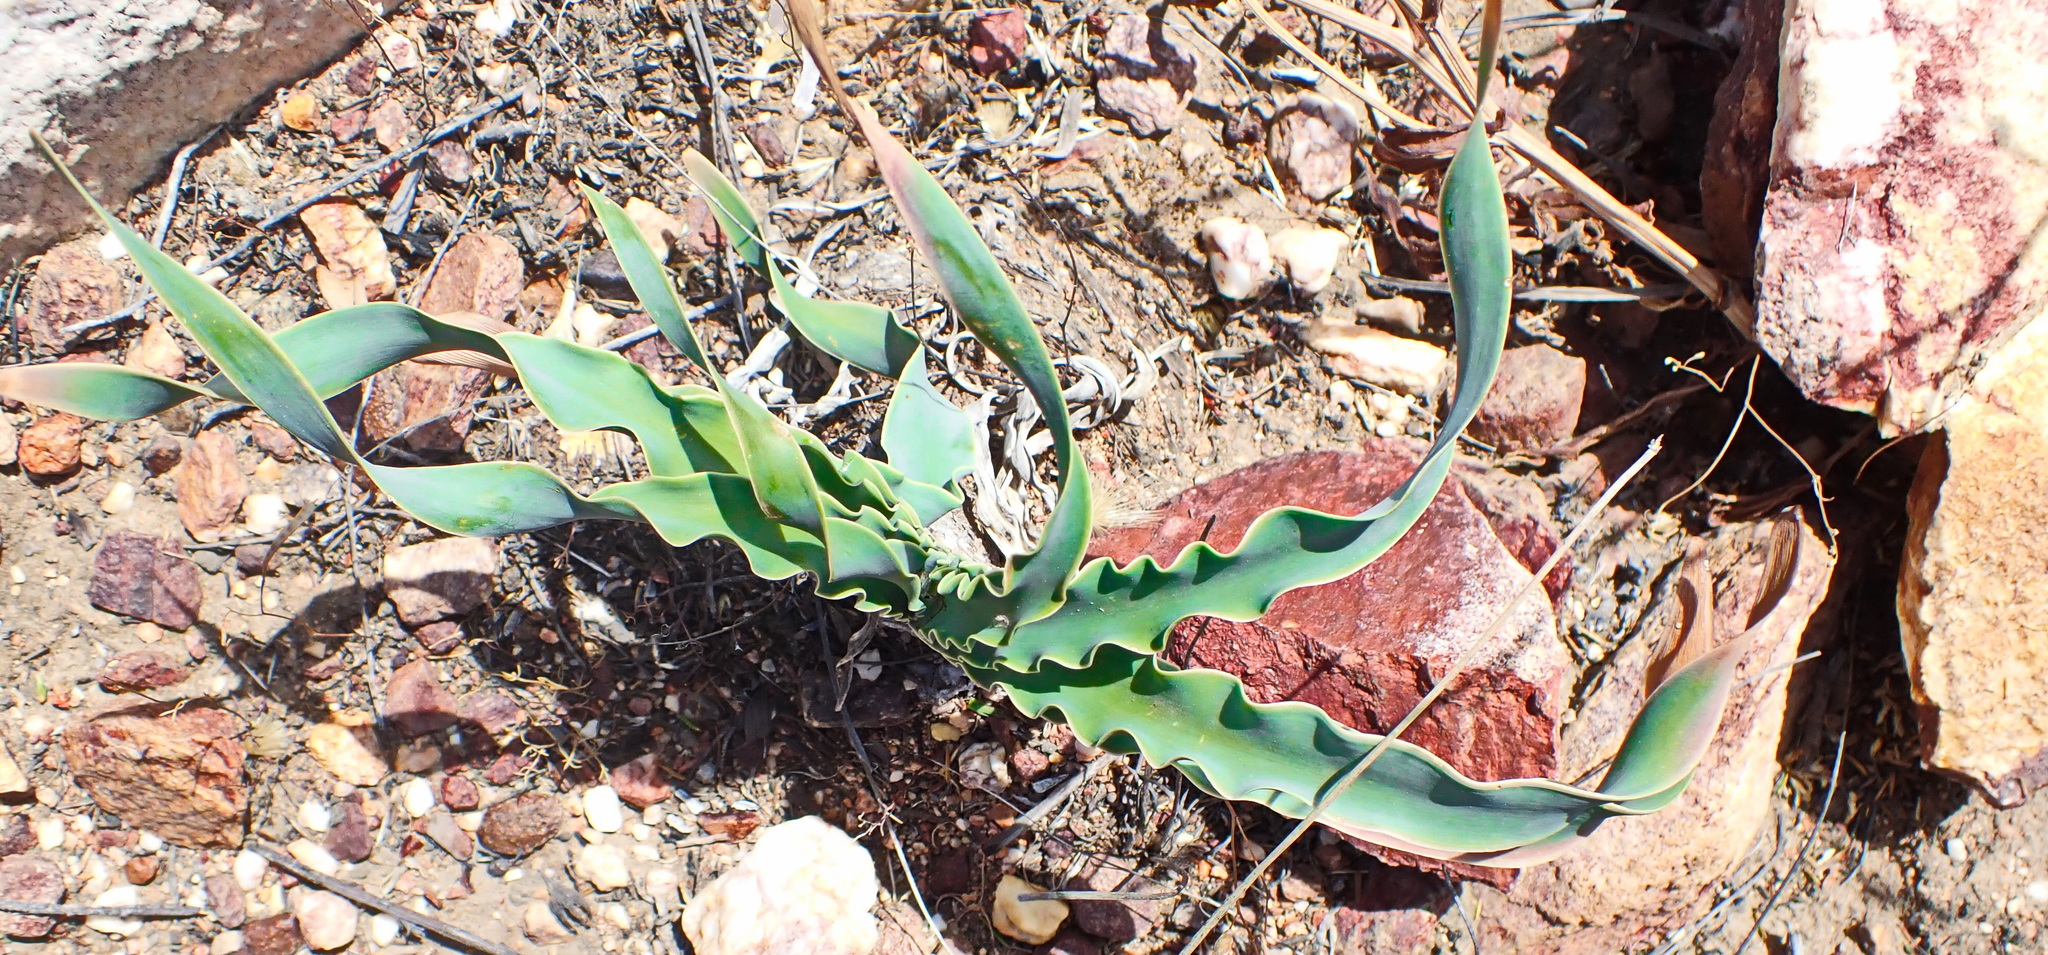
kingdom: Plantae
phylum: Tracheophyta
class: Liliopsida
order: Asparagales
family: Amaryllidaceae
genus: Boophone
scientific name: Boophone disticha
